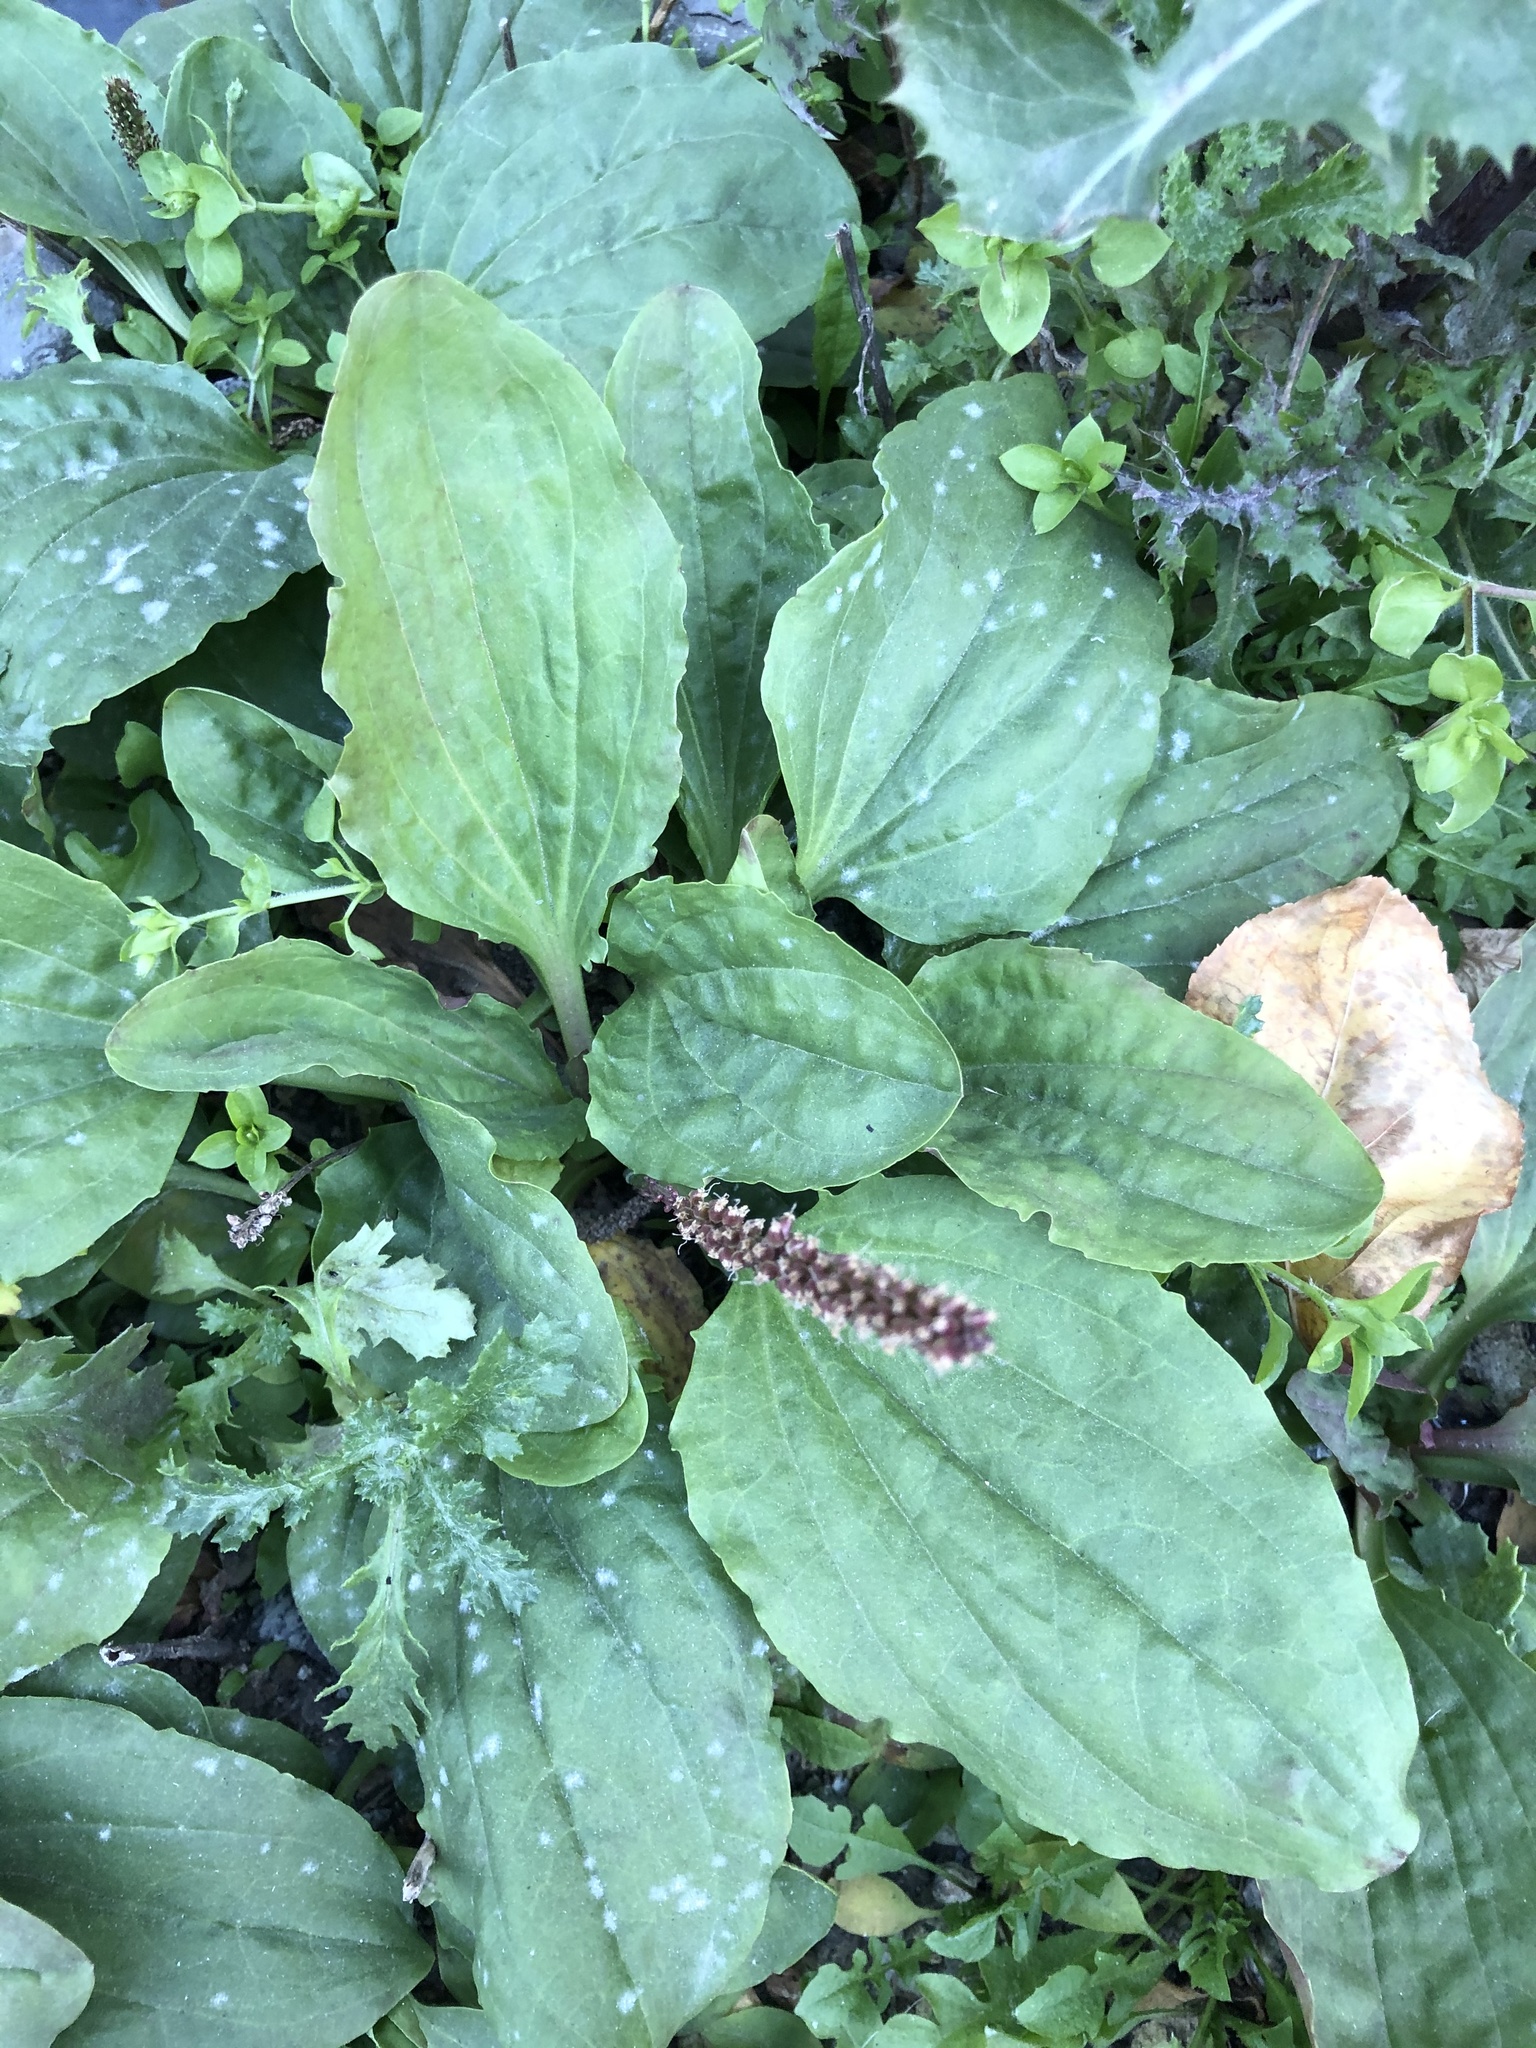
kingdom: Plantae
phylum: Tracheophyta
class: Magnoliopsida
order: Lamiales
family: Plantaginaceae
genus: Plantago
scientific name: Plantago major
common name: Common plantain
